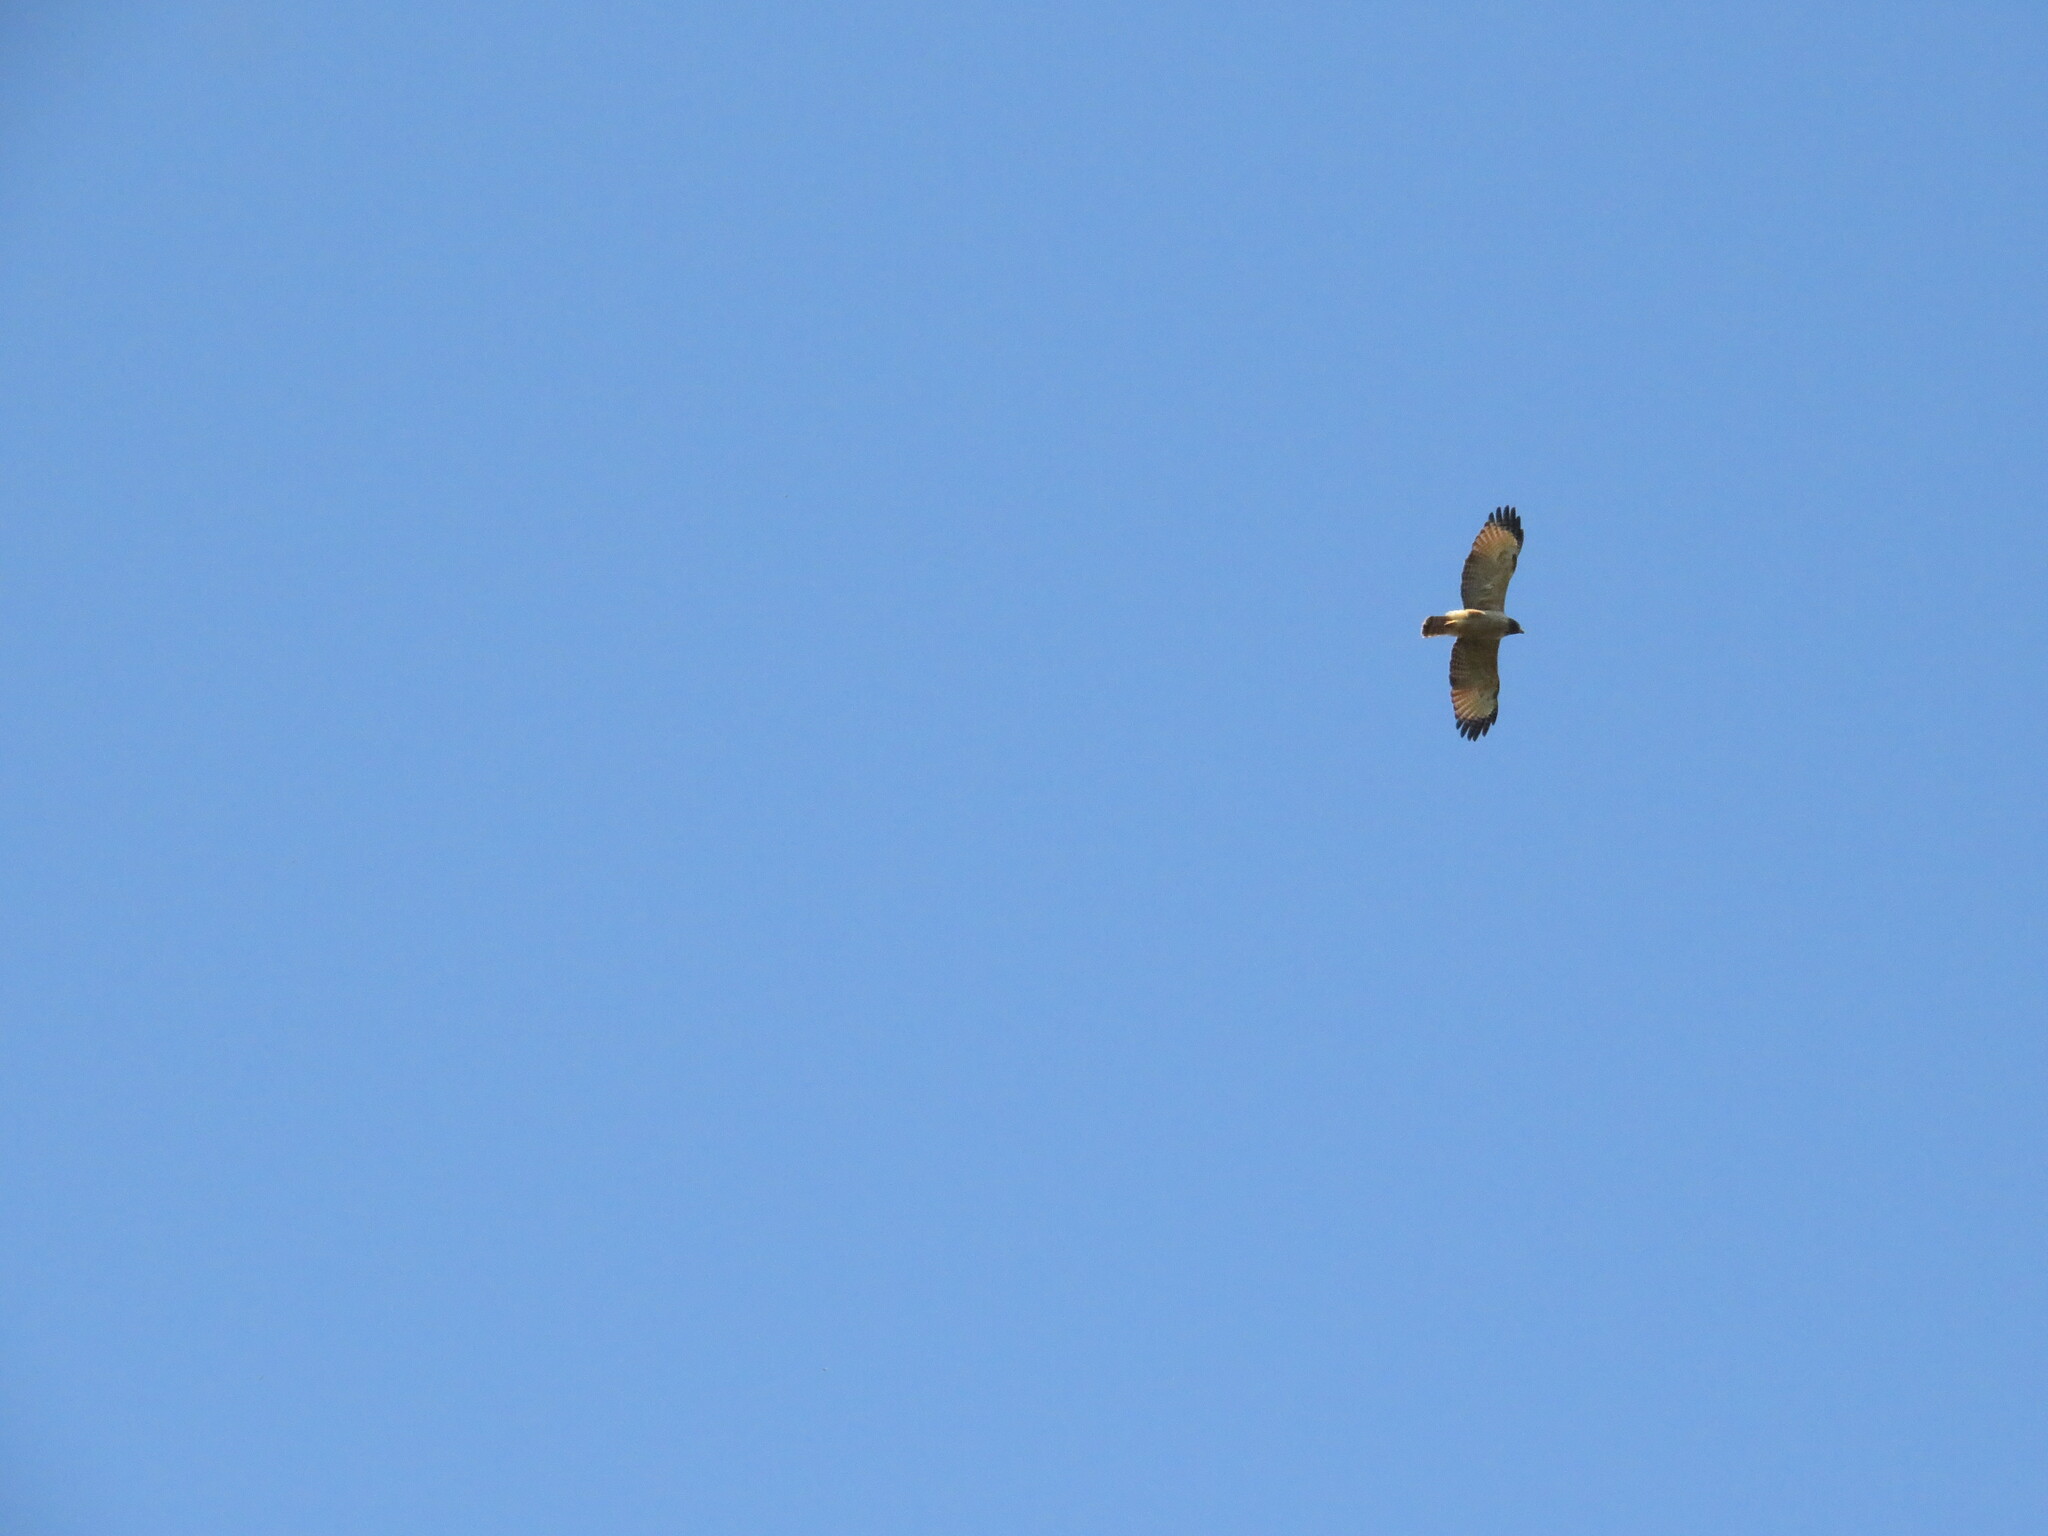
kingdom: Animalia
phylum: Chordata
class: Aves
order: Accipitriformes
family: Accipitridae
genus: Rupornis
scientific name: Rupornis magnirostris
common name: Roadside hawk
